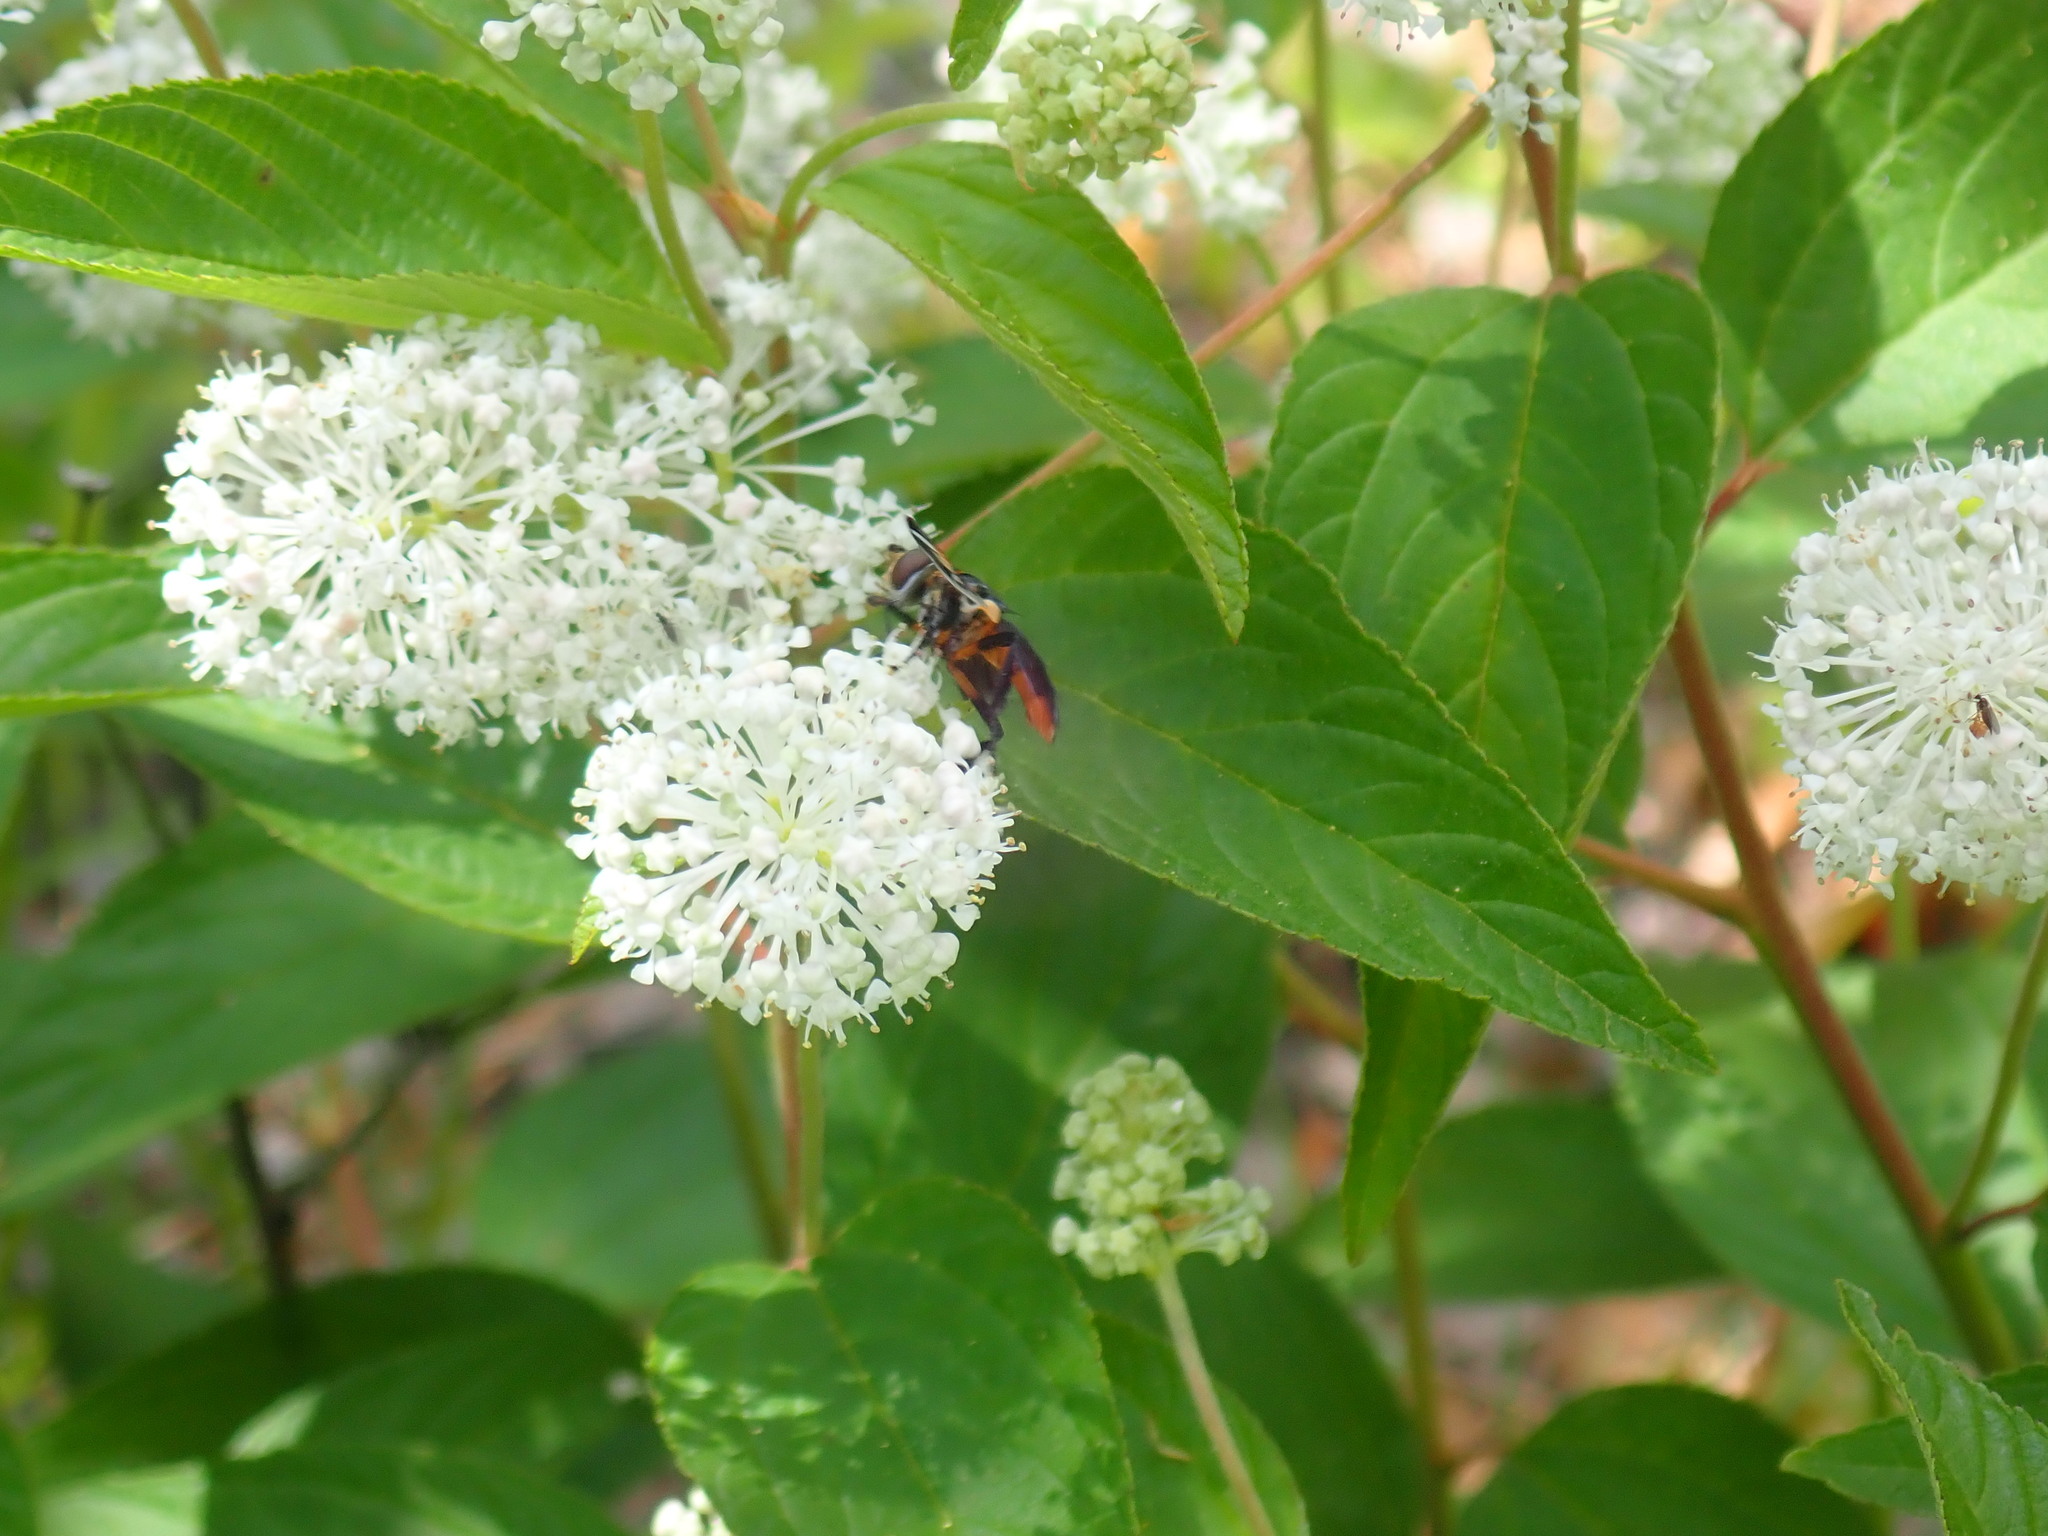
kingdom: Plantae
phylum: Tracheophyta
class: Magnoliopsida
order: Rosales
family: Rhamnaceae
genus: Ceanothus
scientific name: Ceanothus americanus
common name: Redroot
